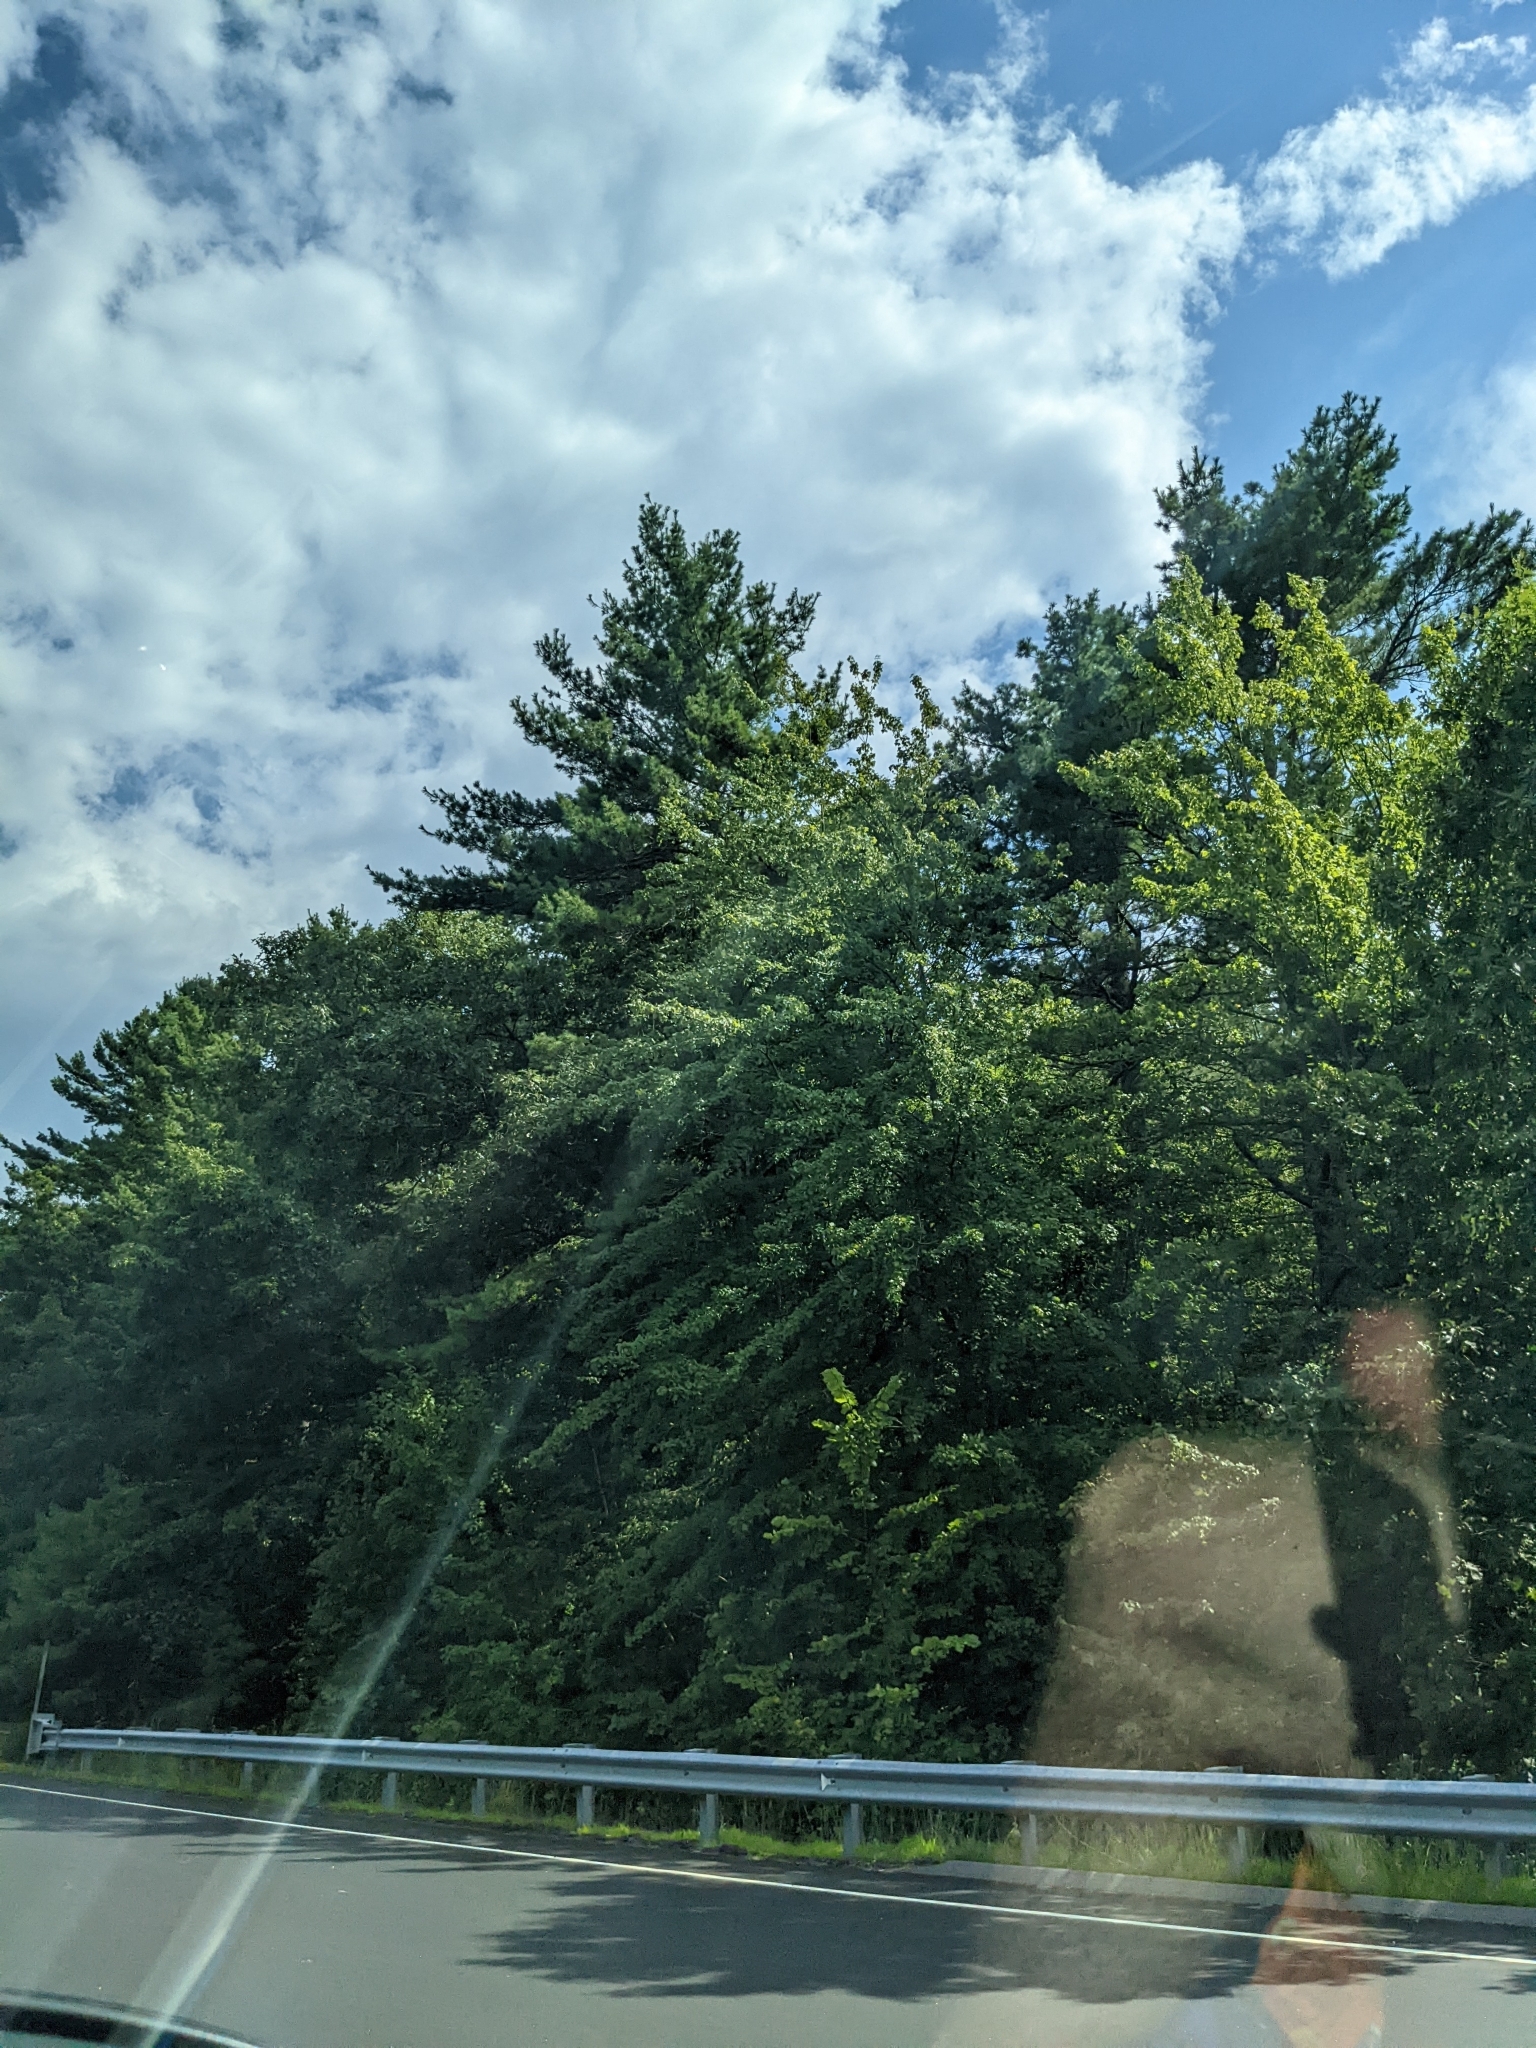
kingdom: Plantae
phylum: Tracheophyta
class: Pinopsida
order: Pinales
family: Pinaceae
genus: Pinus
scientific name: Pinus strobus
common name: Weymouth pine
